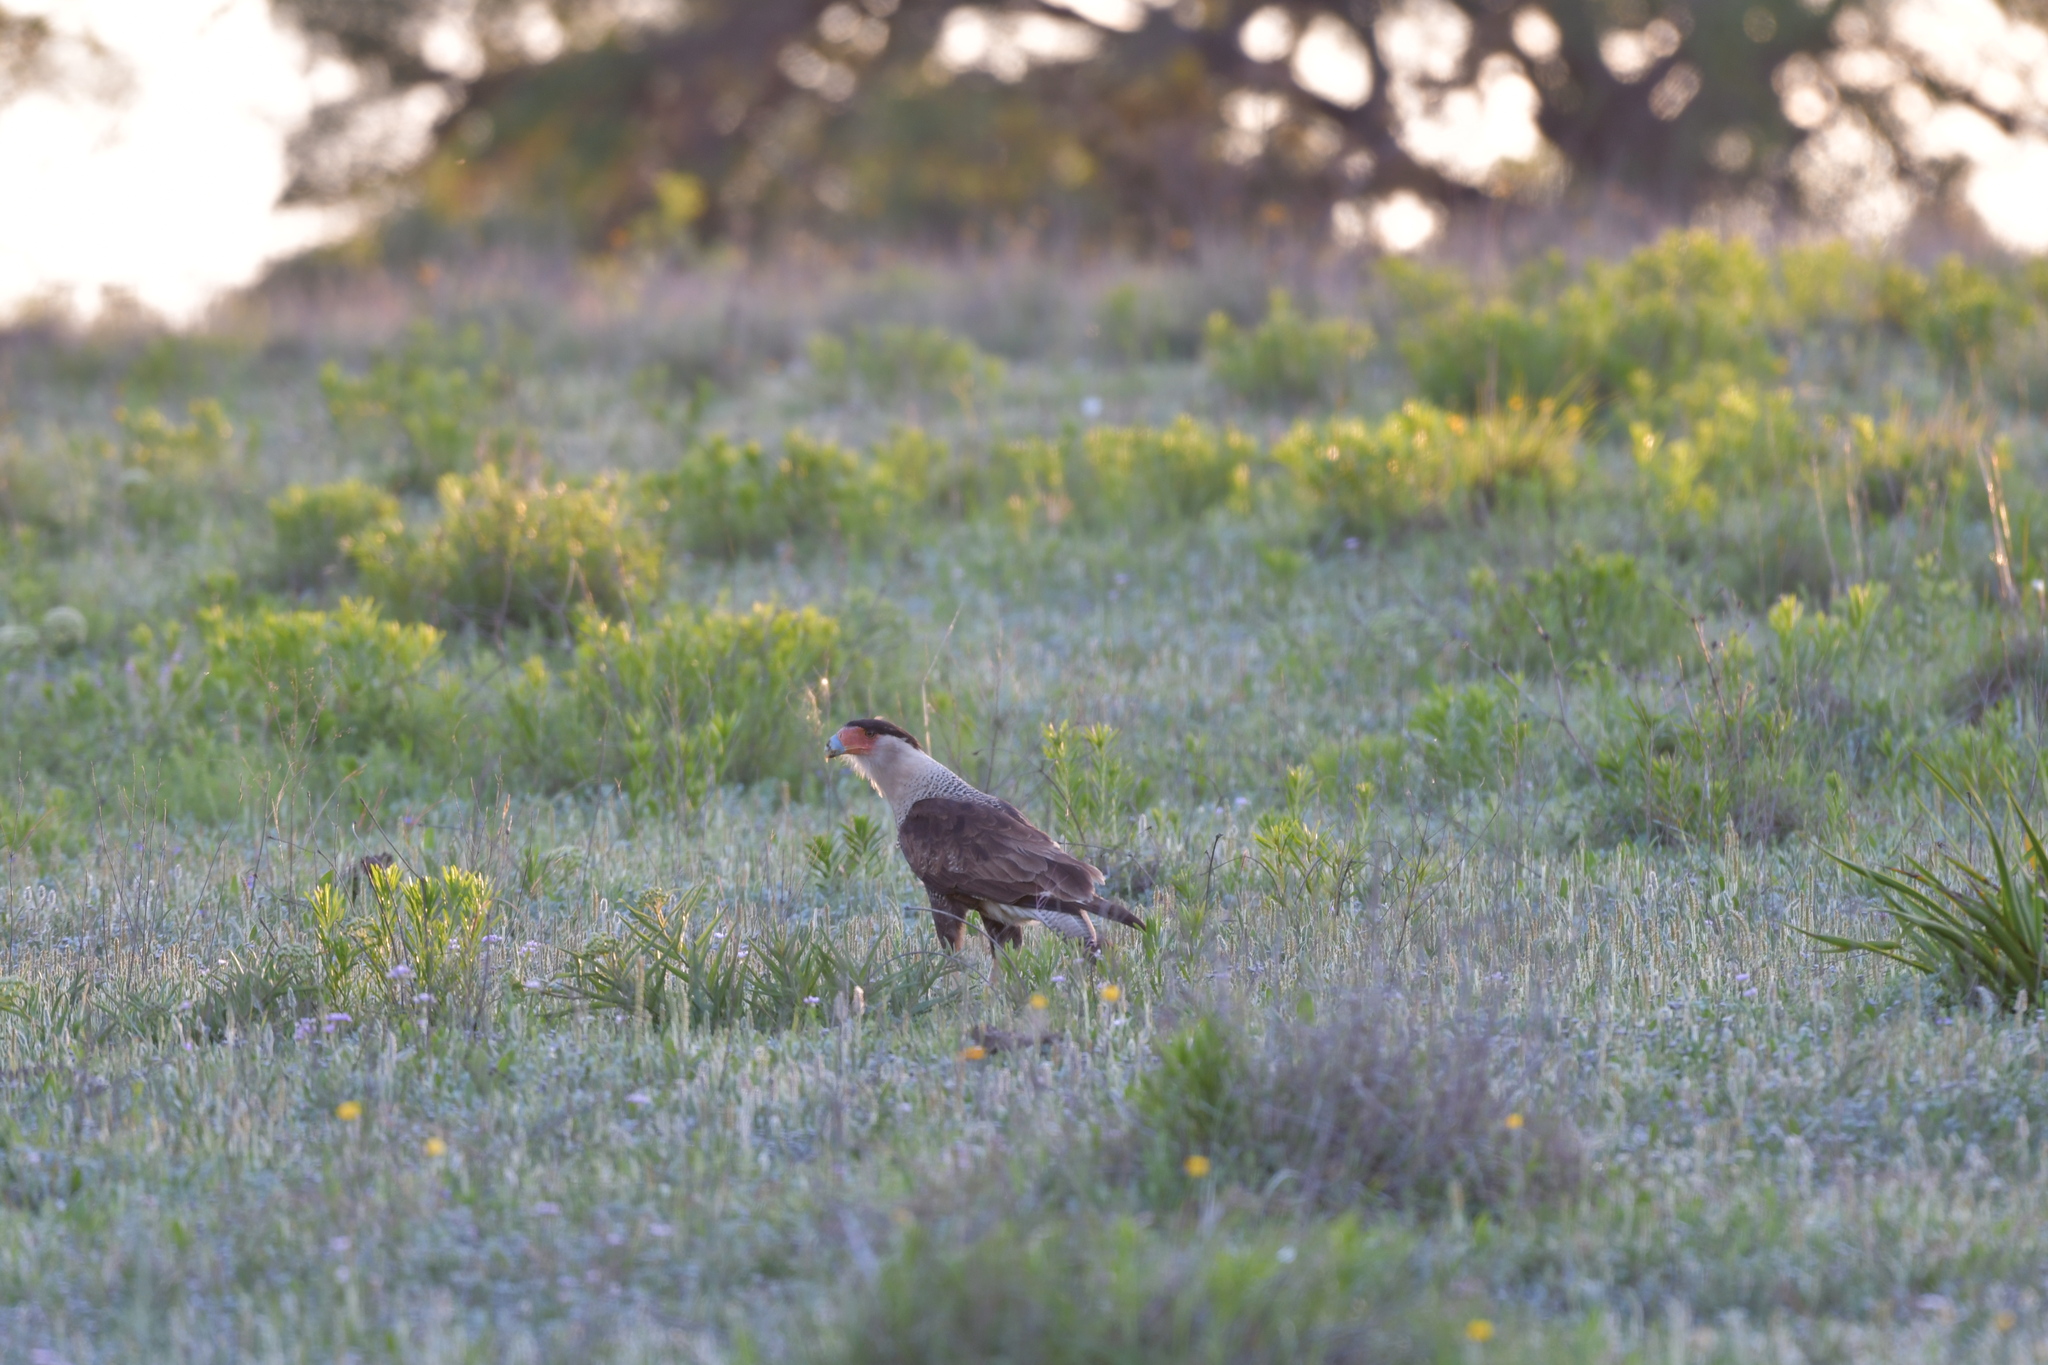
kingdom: Animalia
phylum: Chordata
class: Aves
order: Falconiformes
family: Falconidae
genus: Caracara
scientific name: Caracara plancus
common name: Southern caracara
